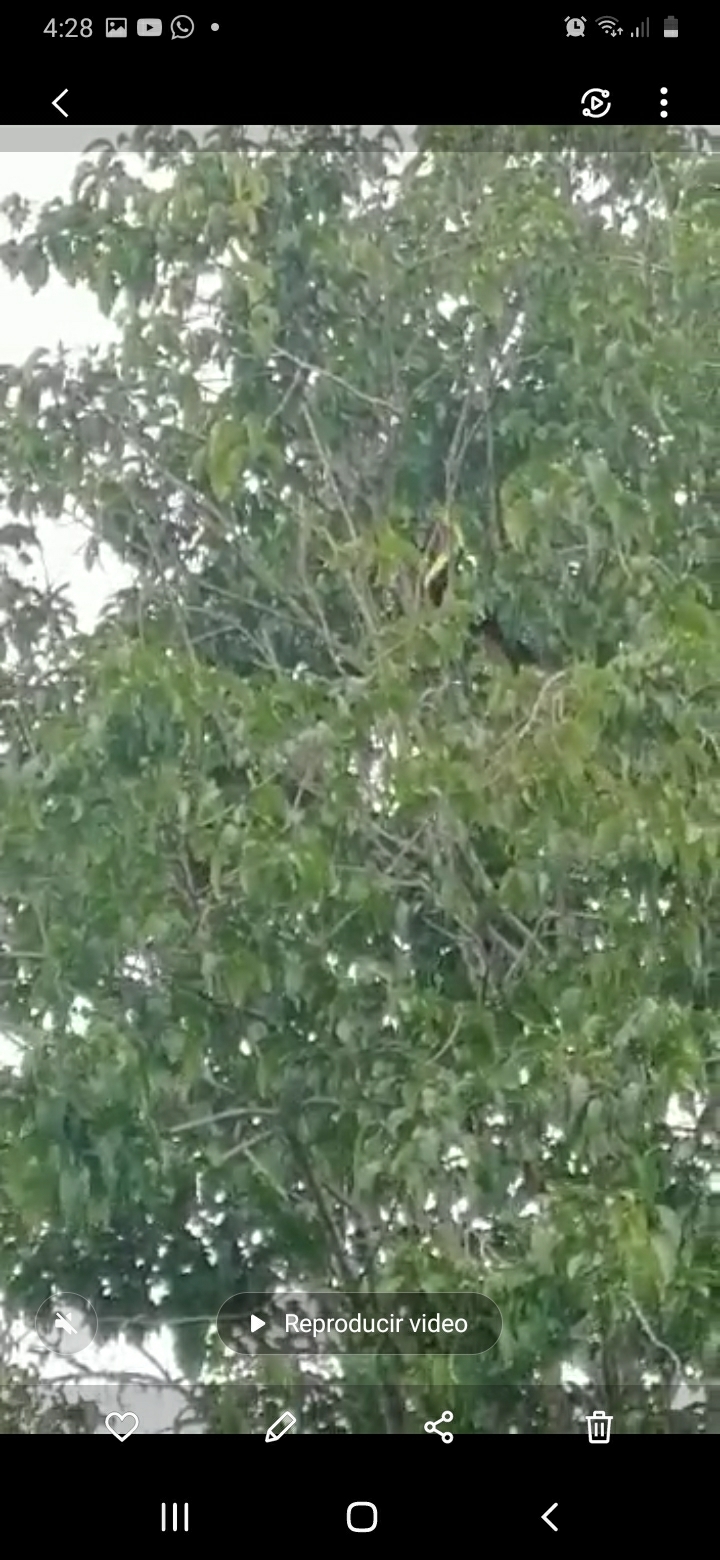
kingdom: Animalia
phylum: Chordata
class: Aves
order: Piciformes
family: Ramphastidae
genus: Ramphastos
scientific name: Ramphastos ambiguus
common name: Yellow-throated toucan
